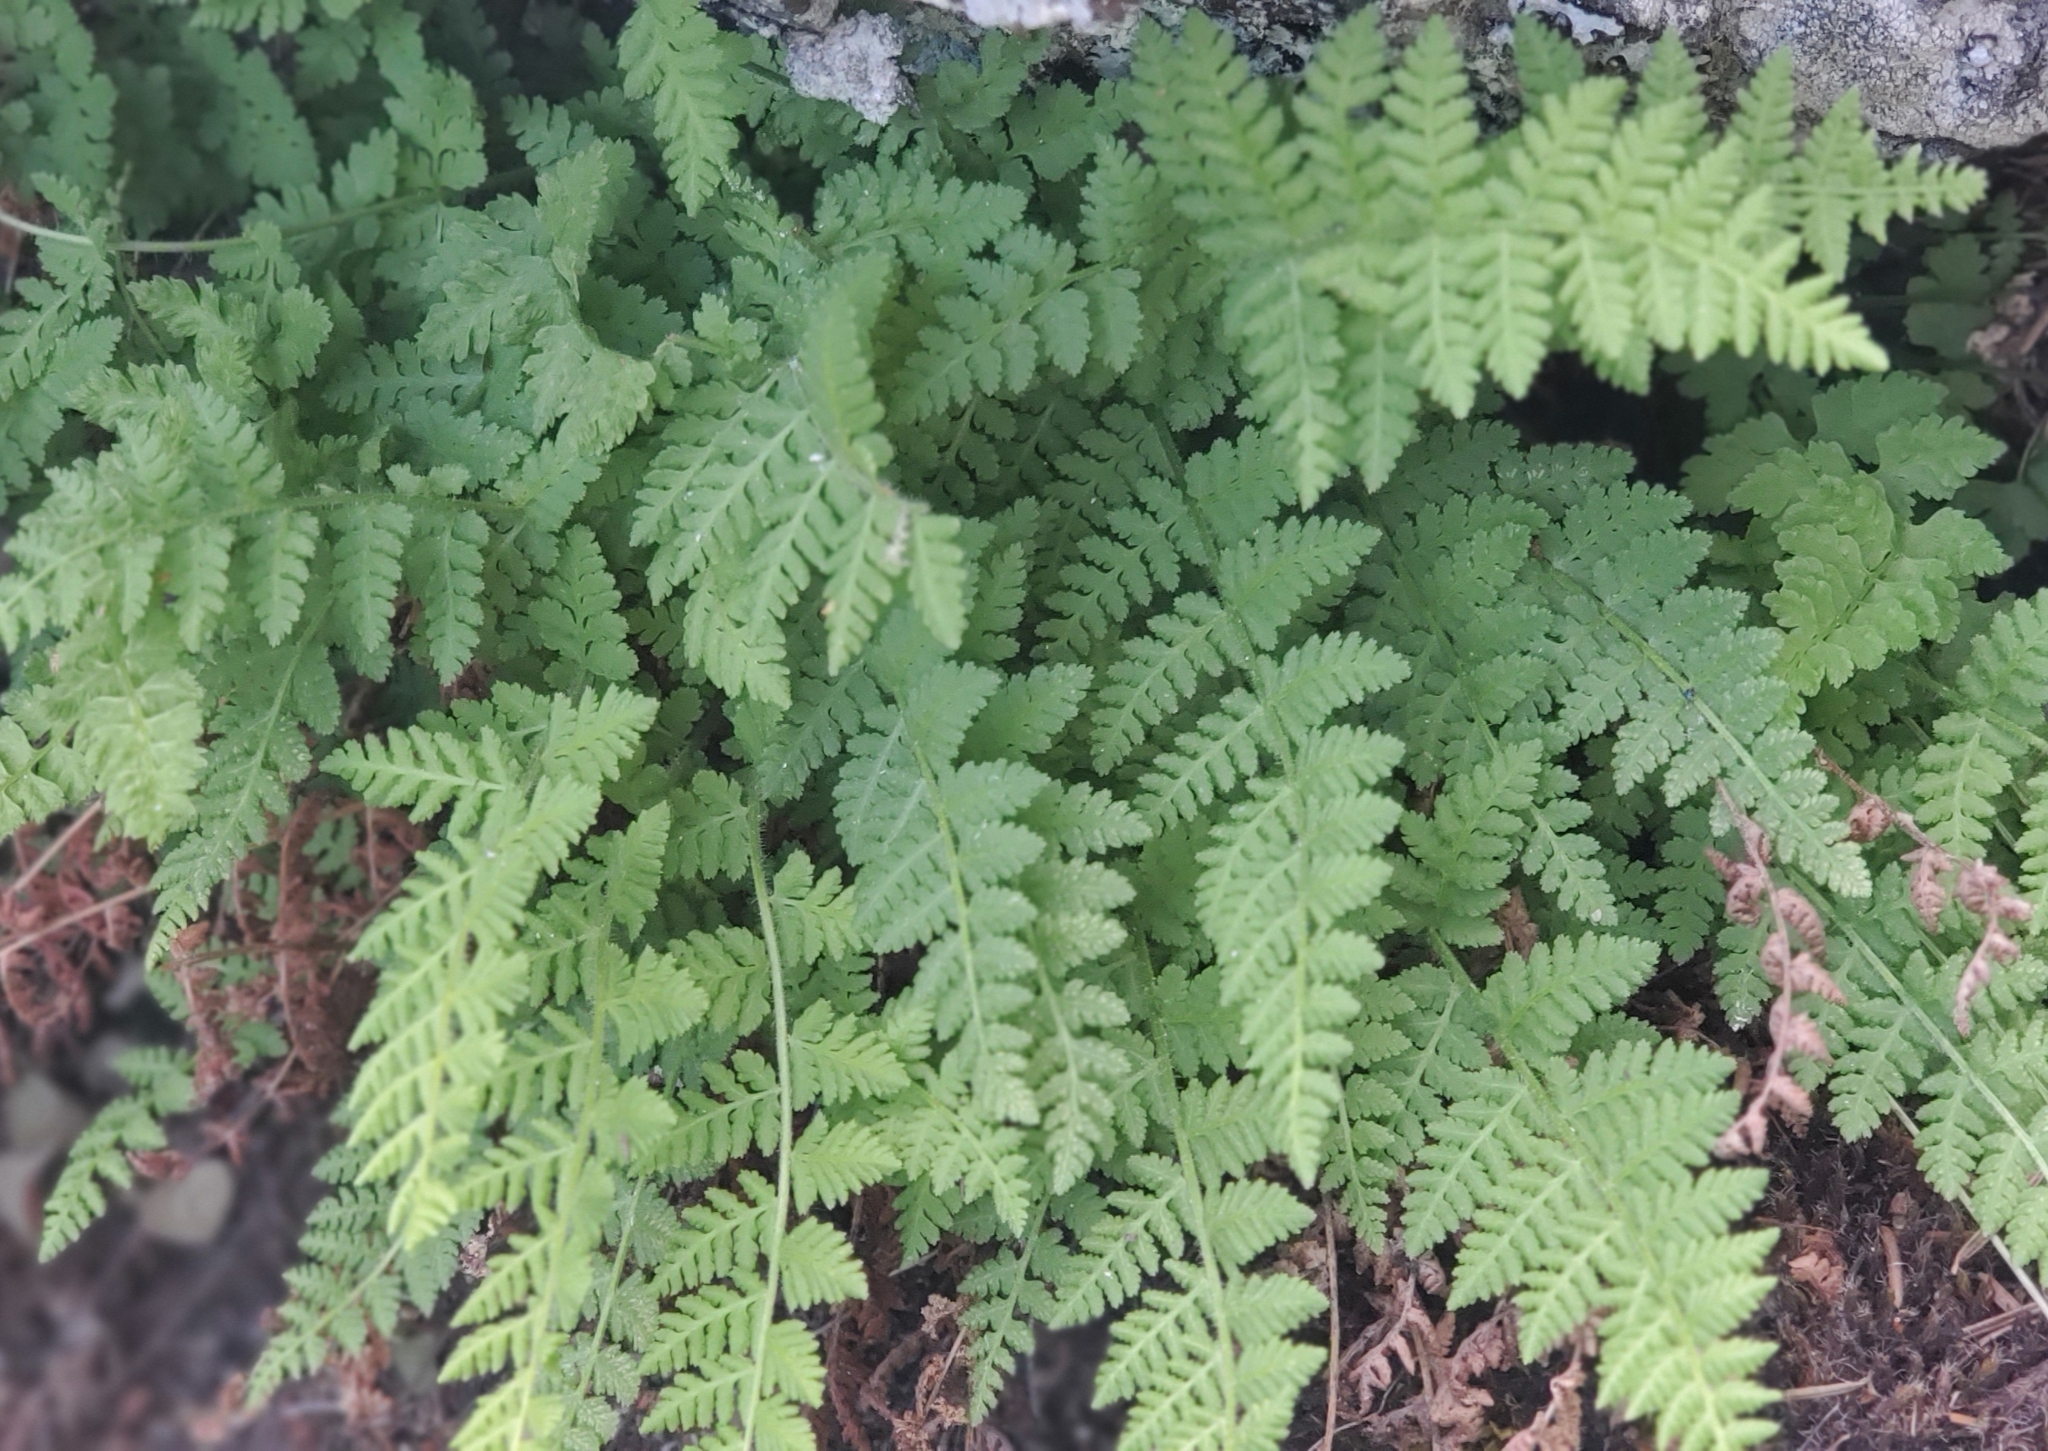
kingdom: Plantae
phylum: Tracheophyta
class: Polypodiopsida
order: Polypodiales
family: Woodsiaceae
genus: Physematium
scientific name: Physematium scopulinum
